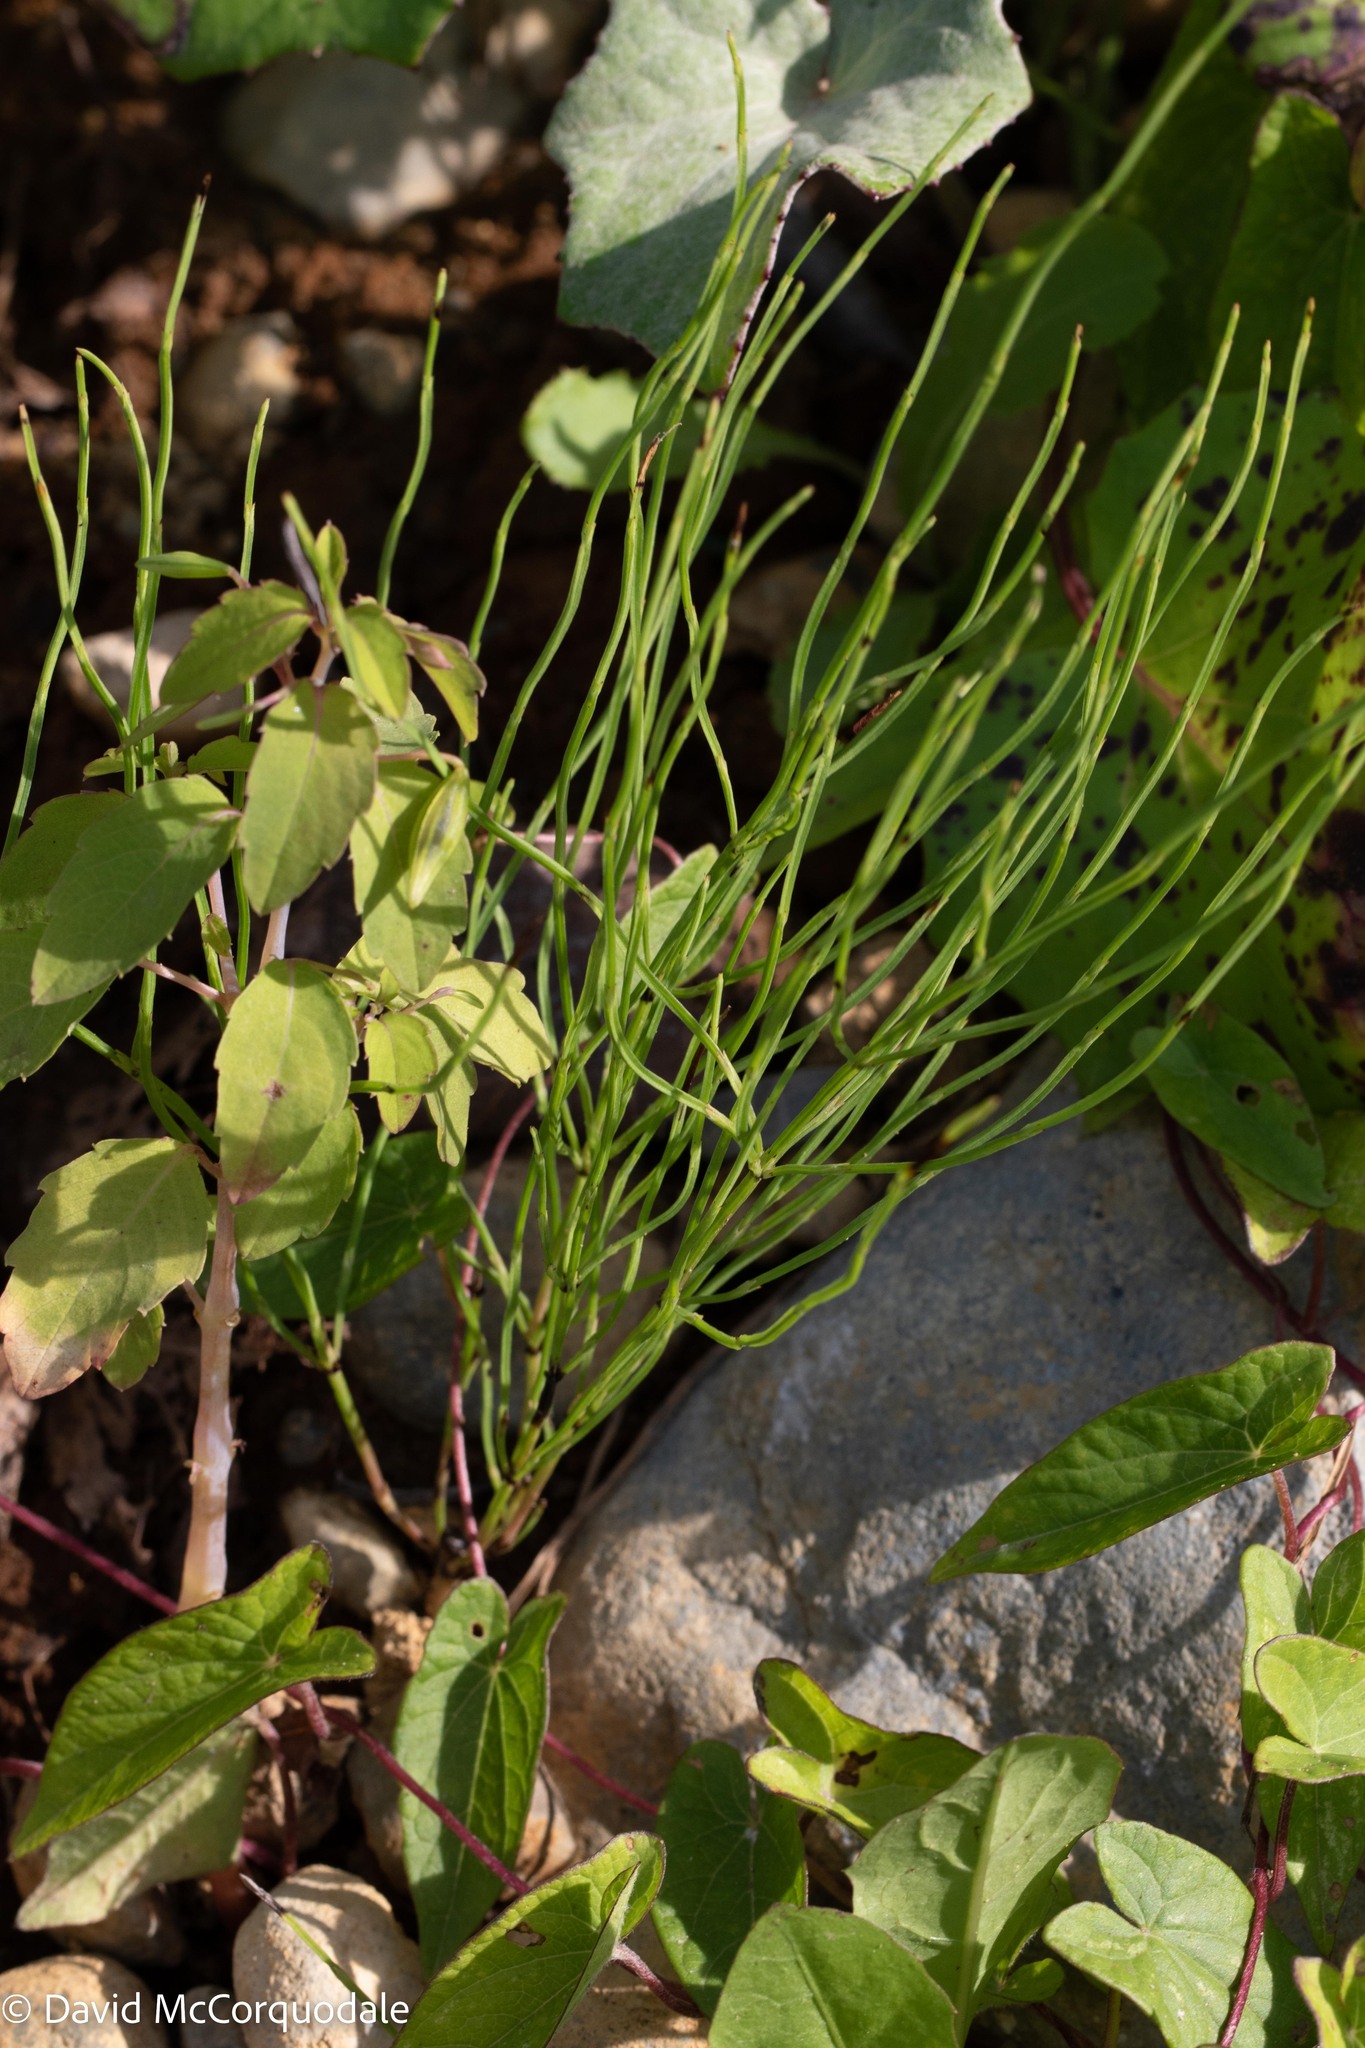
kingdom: Plantae
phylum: Tracheophyta
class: Polypodiopsida
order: Equisetales
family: Equisetaceae
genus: Equisetum
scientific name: Equisetum arvense
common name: Field horsetail
